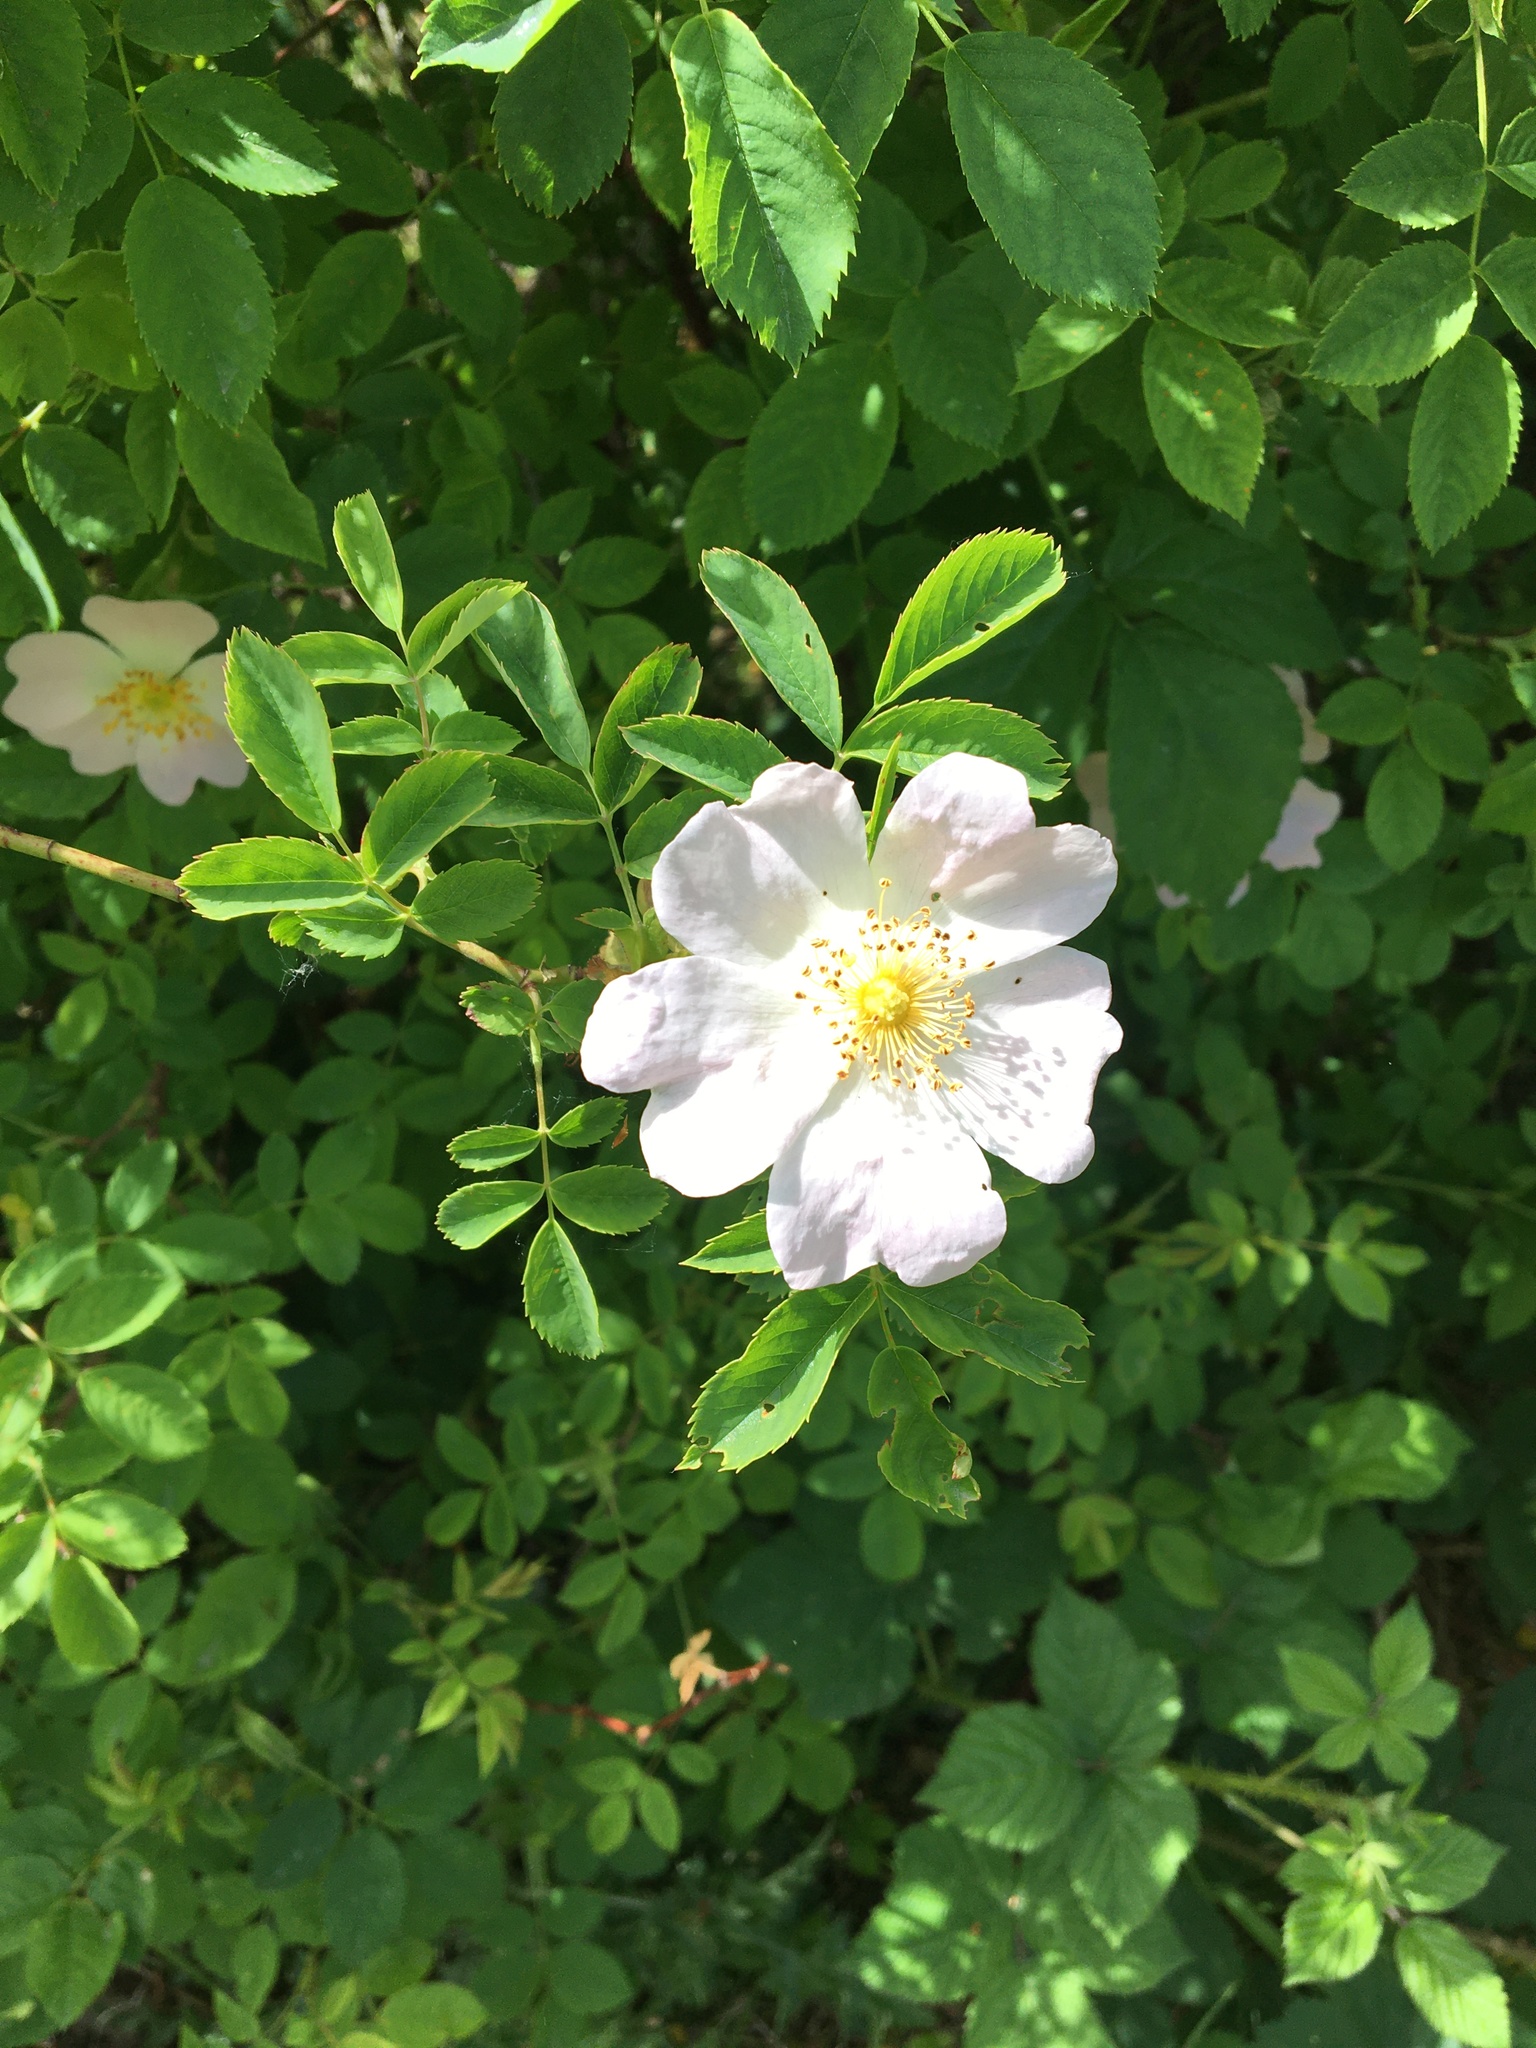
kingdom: Plantae
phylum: Tracheophyta
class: Magnoliopsida
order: Rosales
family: Rosaceae
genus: Rosa
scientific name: Rosa canina
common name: Dog rose
